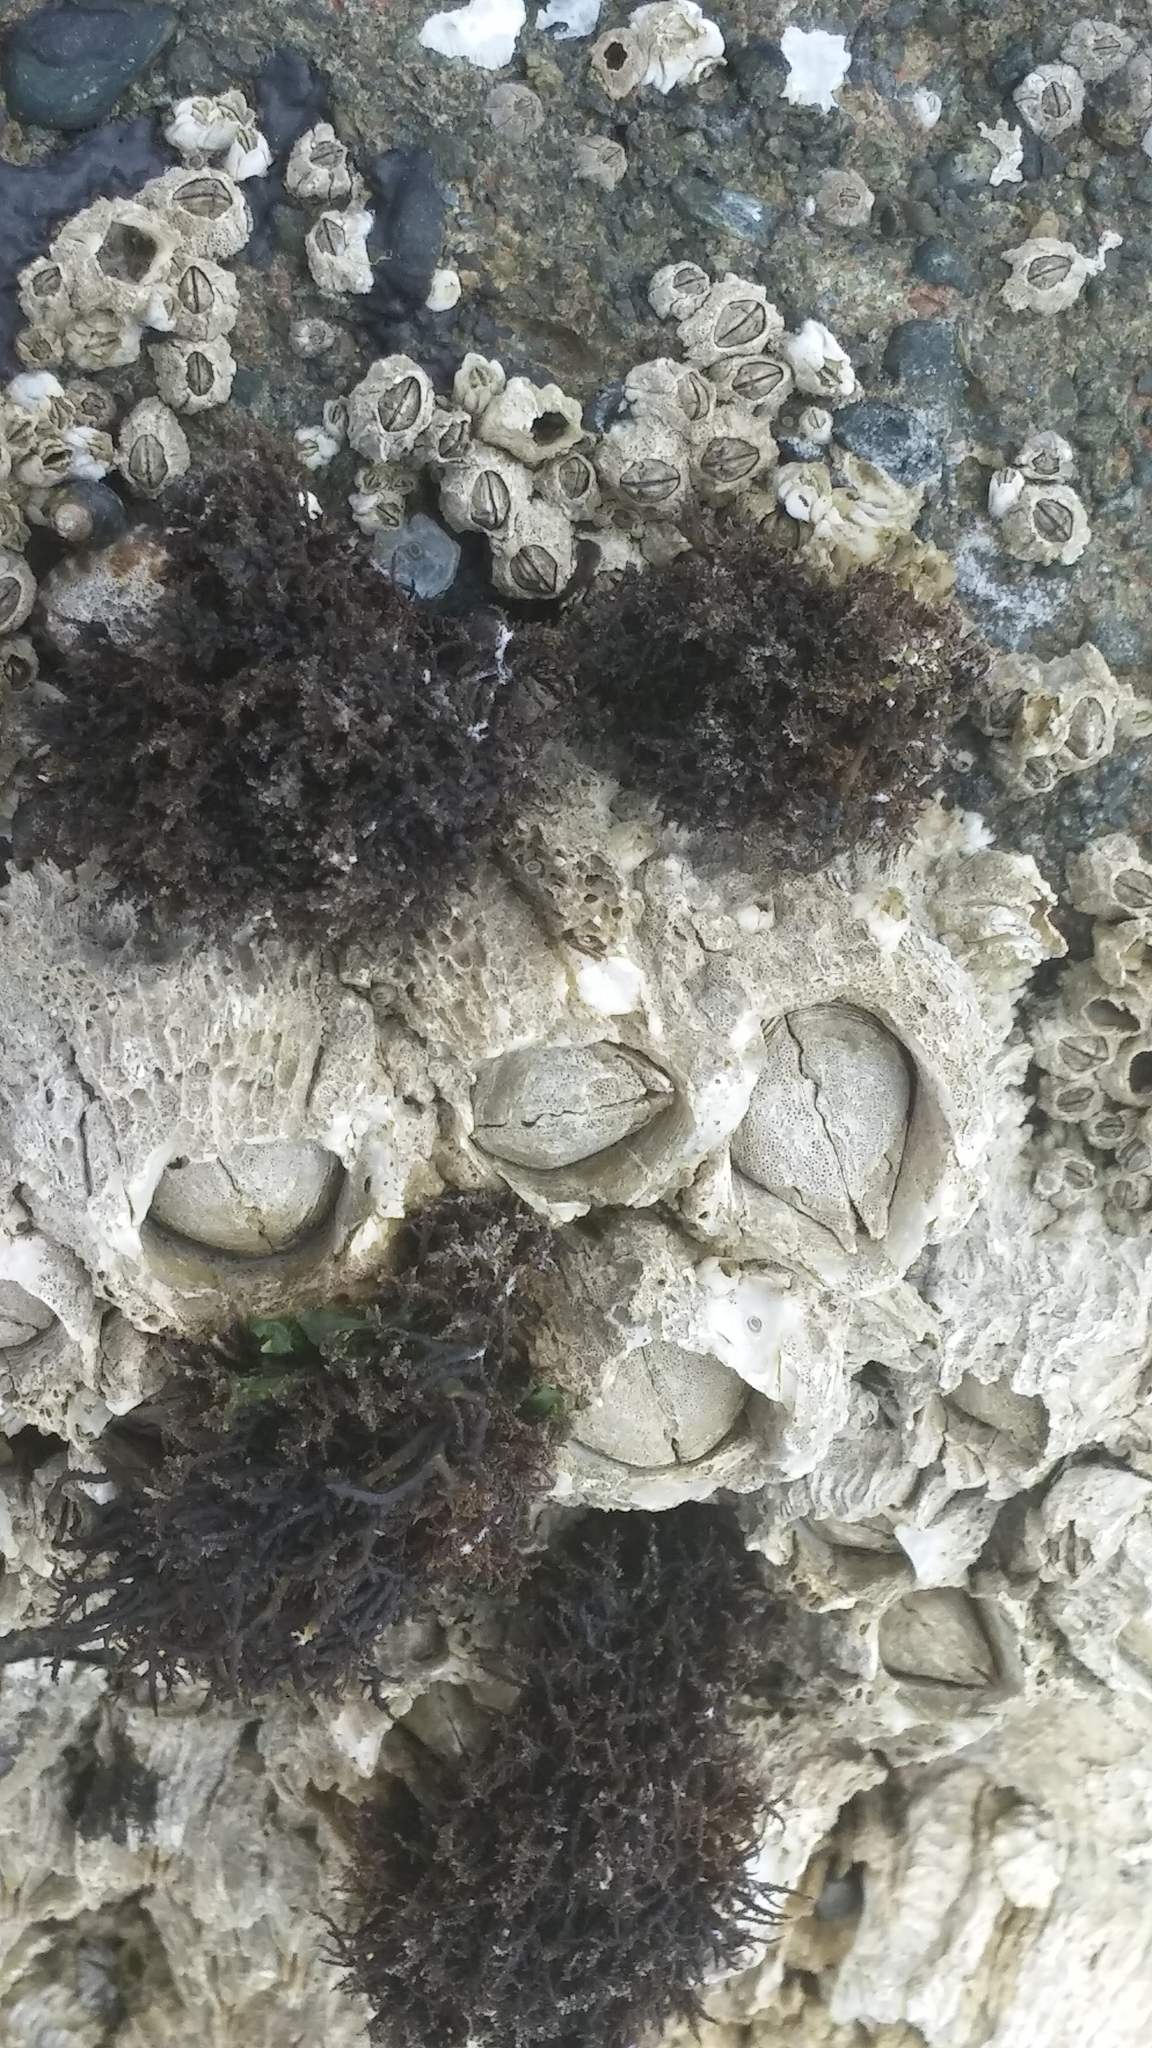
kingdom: Animalia
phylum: Arthropoda
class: Maxillopoda
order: Sessilia
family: Archaeobalanidae
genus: Semibalanus
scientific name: Semibalanus cariosus
